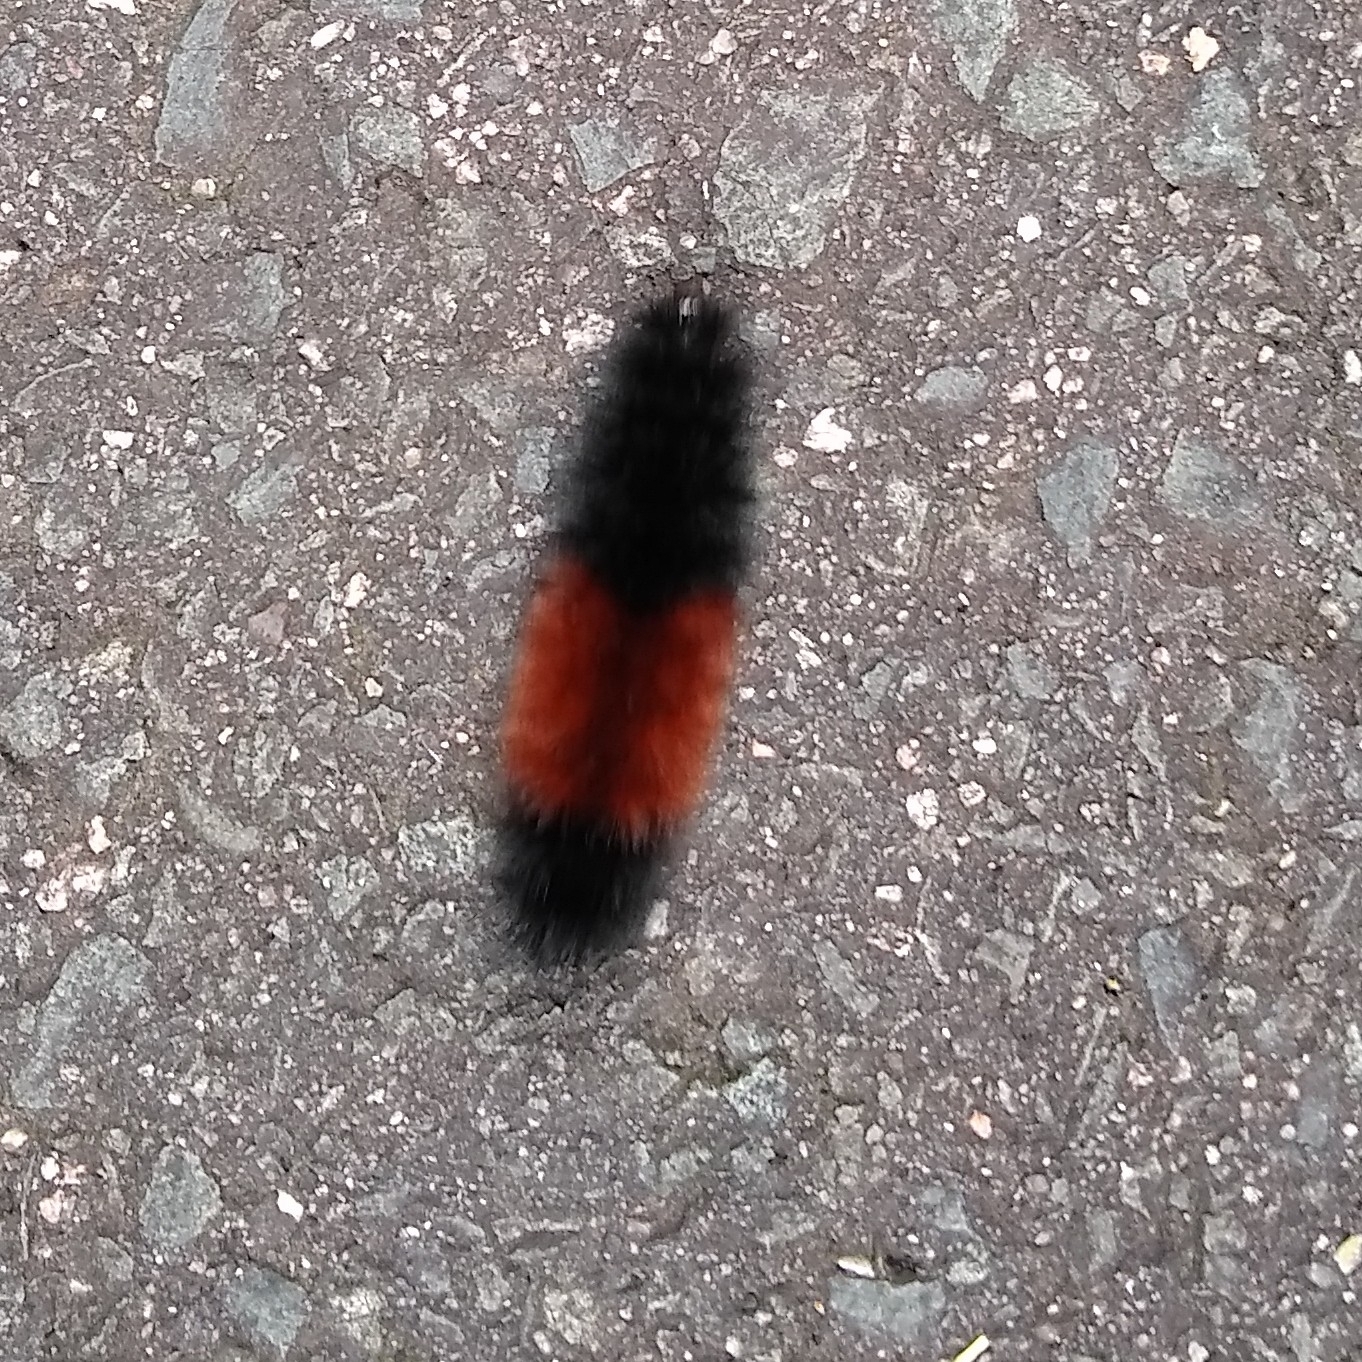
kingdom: Animalia
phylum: Arthropoda
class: Insecta
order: Lepidoptera
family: Erebidae
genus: Pyrrharctia
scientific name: Pyrrharctia isabella
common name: Isabella tiger moth
